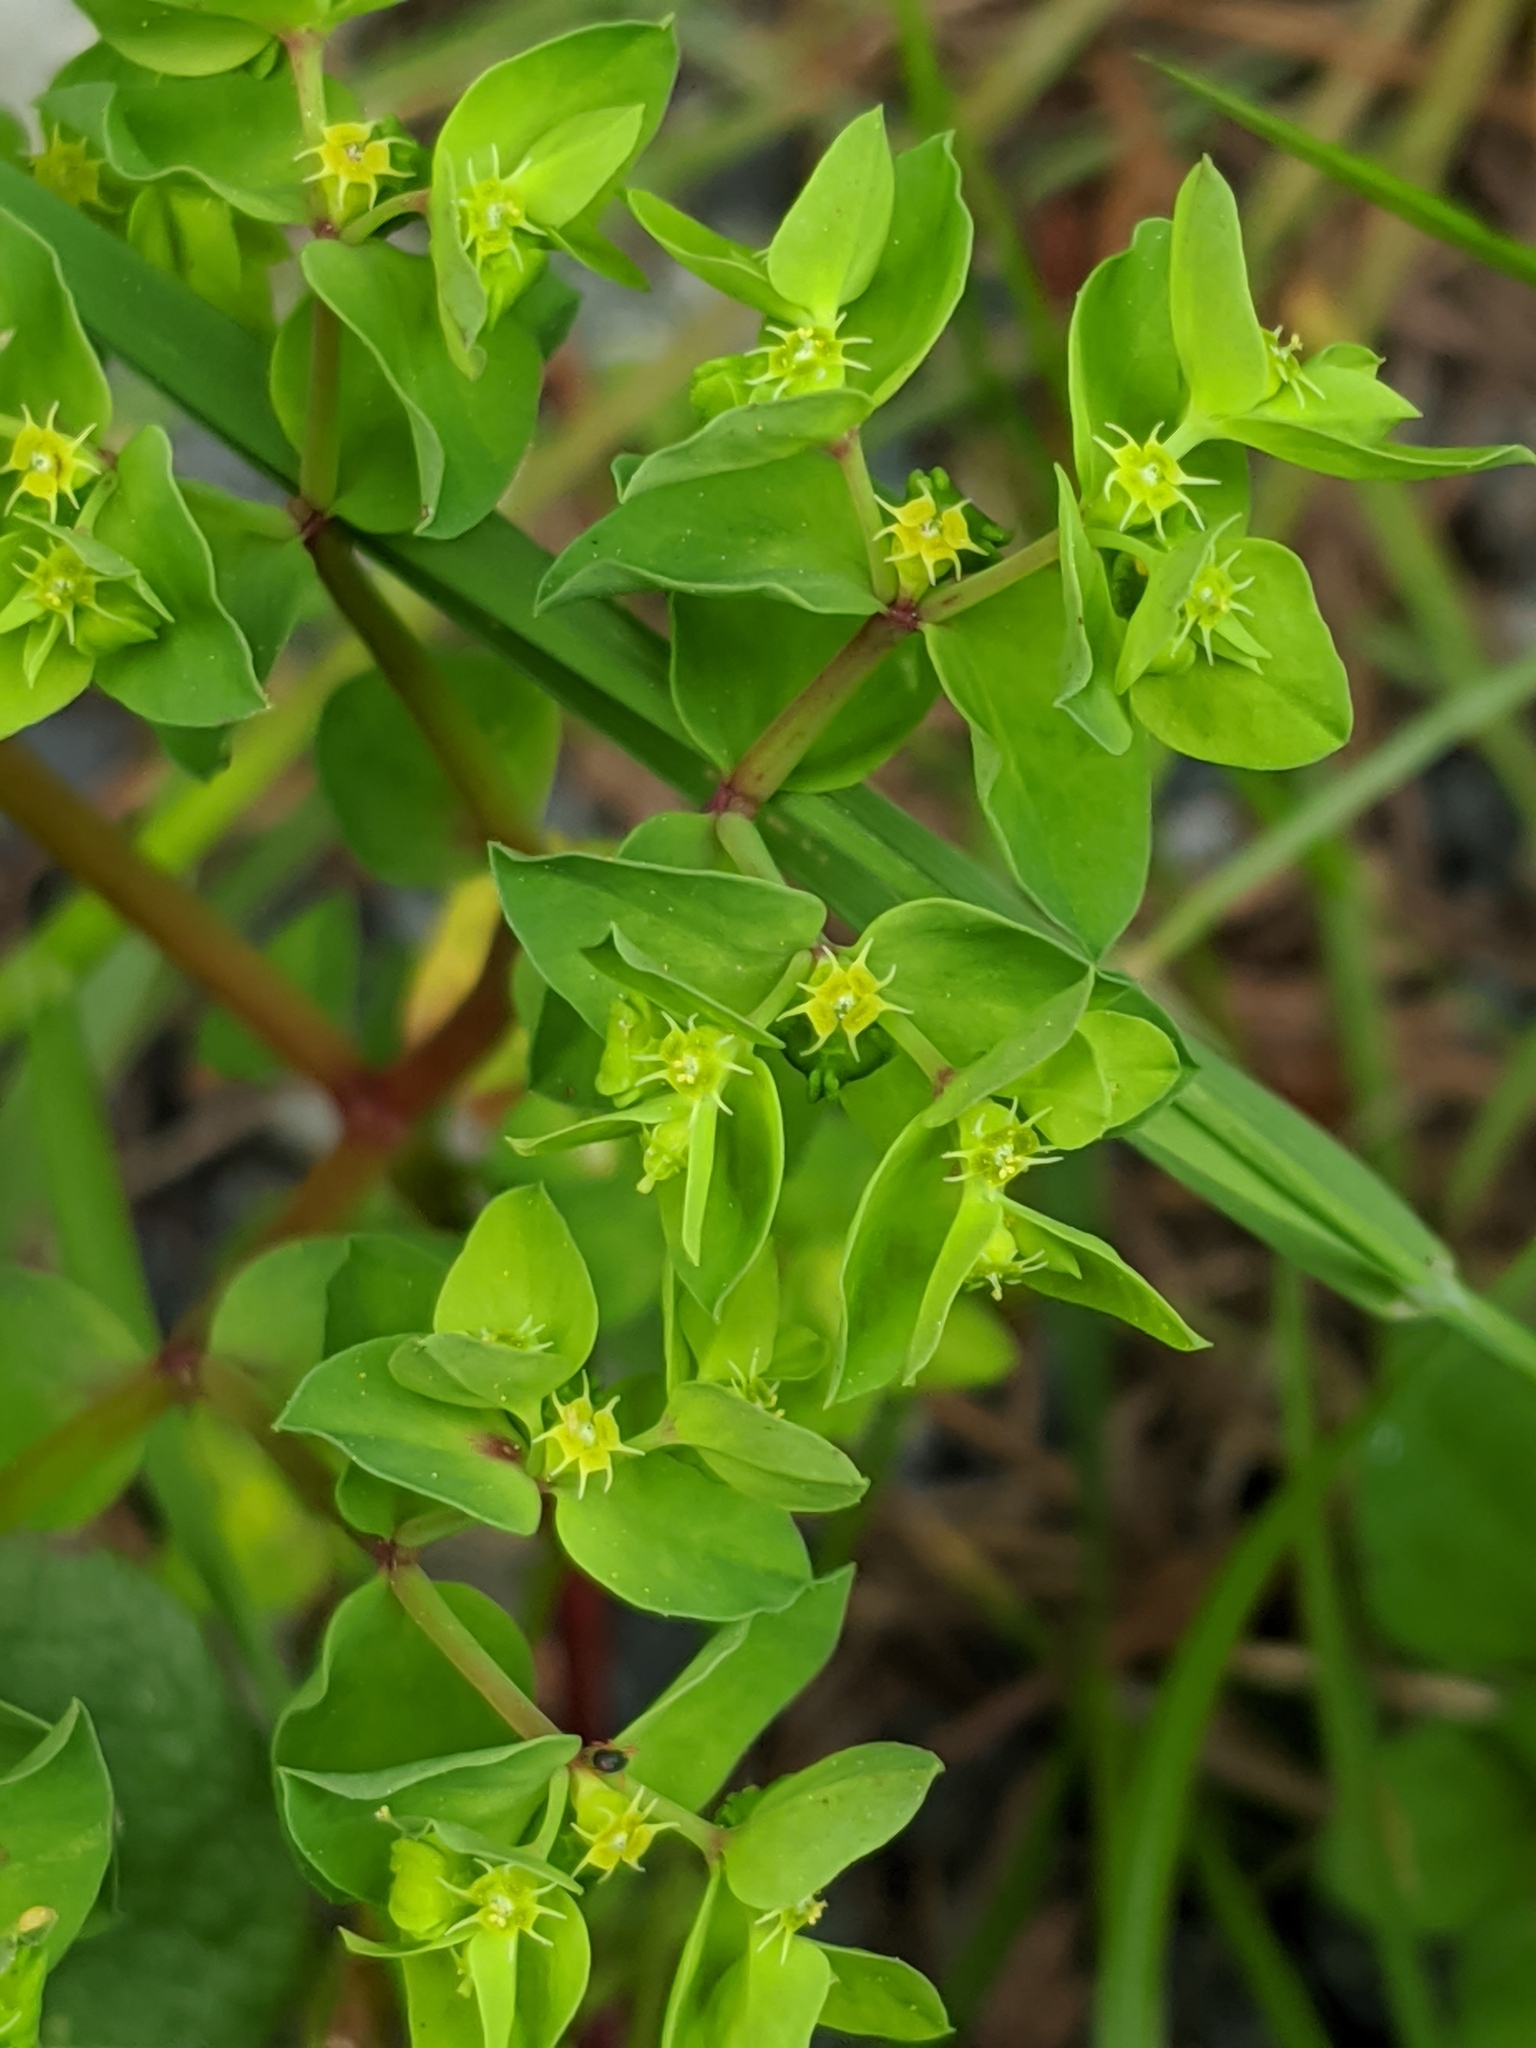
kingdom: Plantae
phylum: Tracheophyta
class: Magnoliopsida
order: Malpighiales
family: Euphorbiaceae
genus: Euphorbia
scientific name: Euphorbia peplus
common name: Petty spurge
